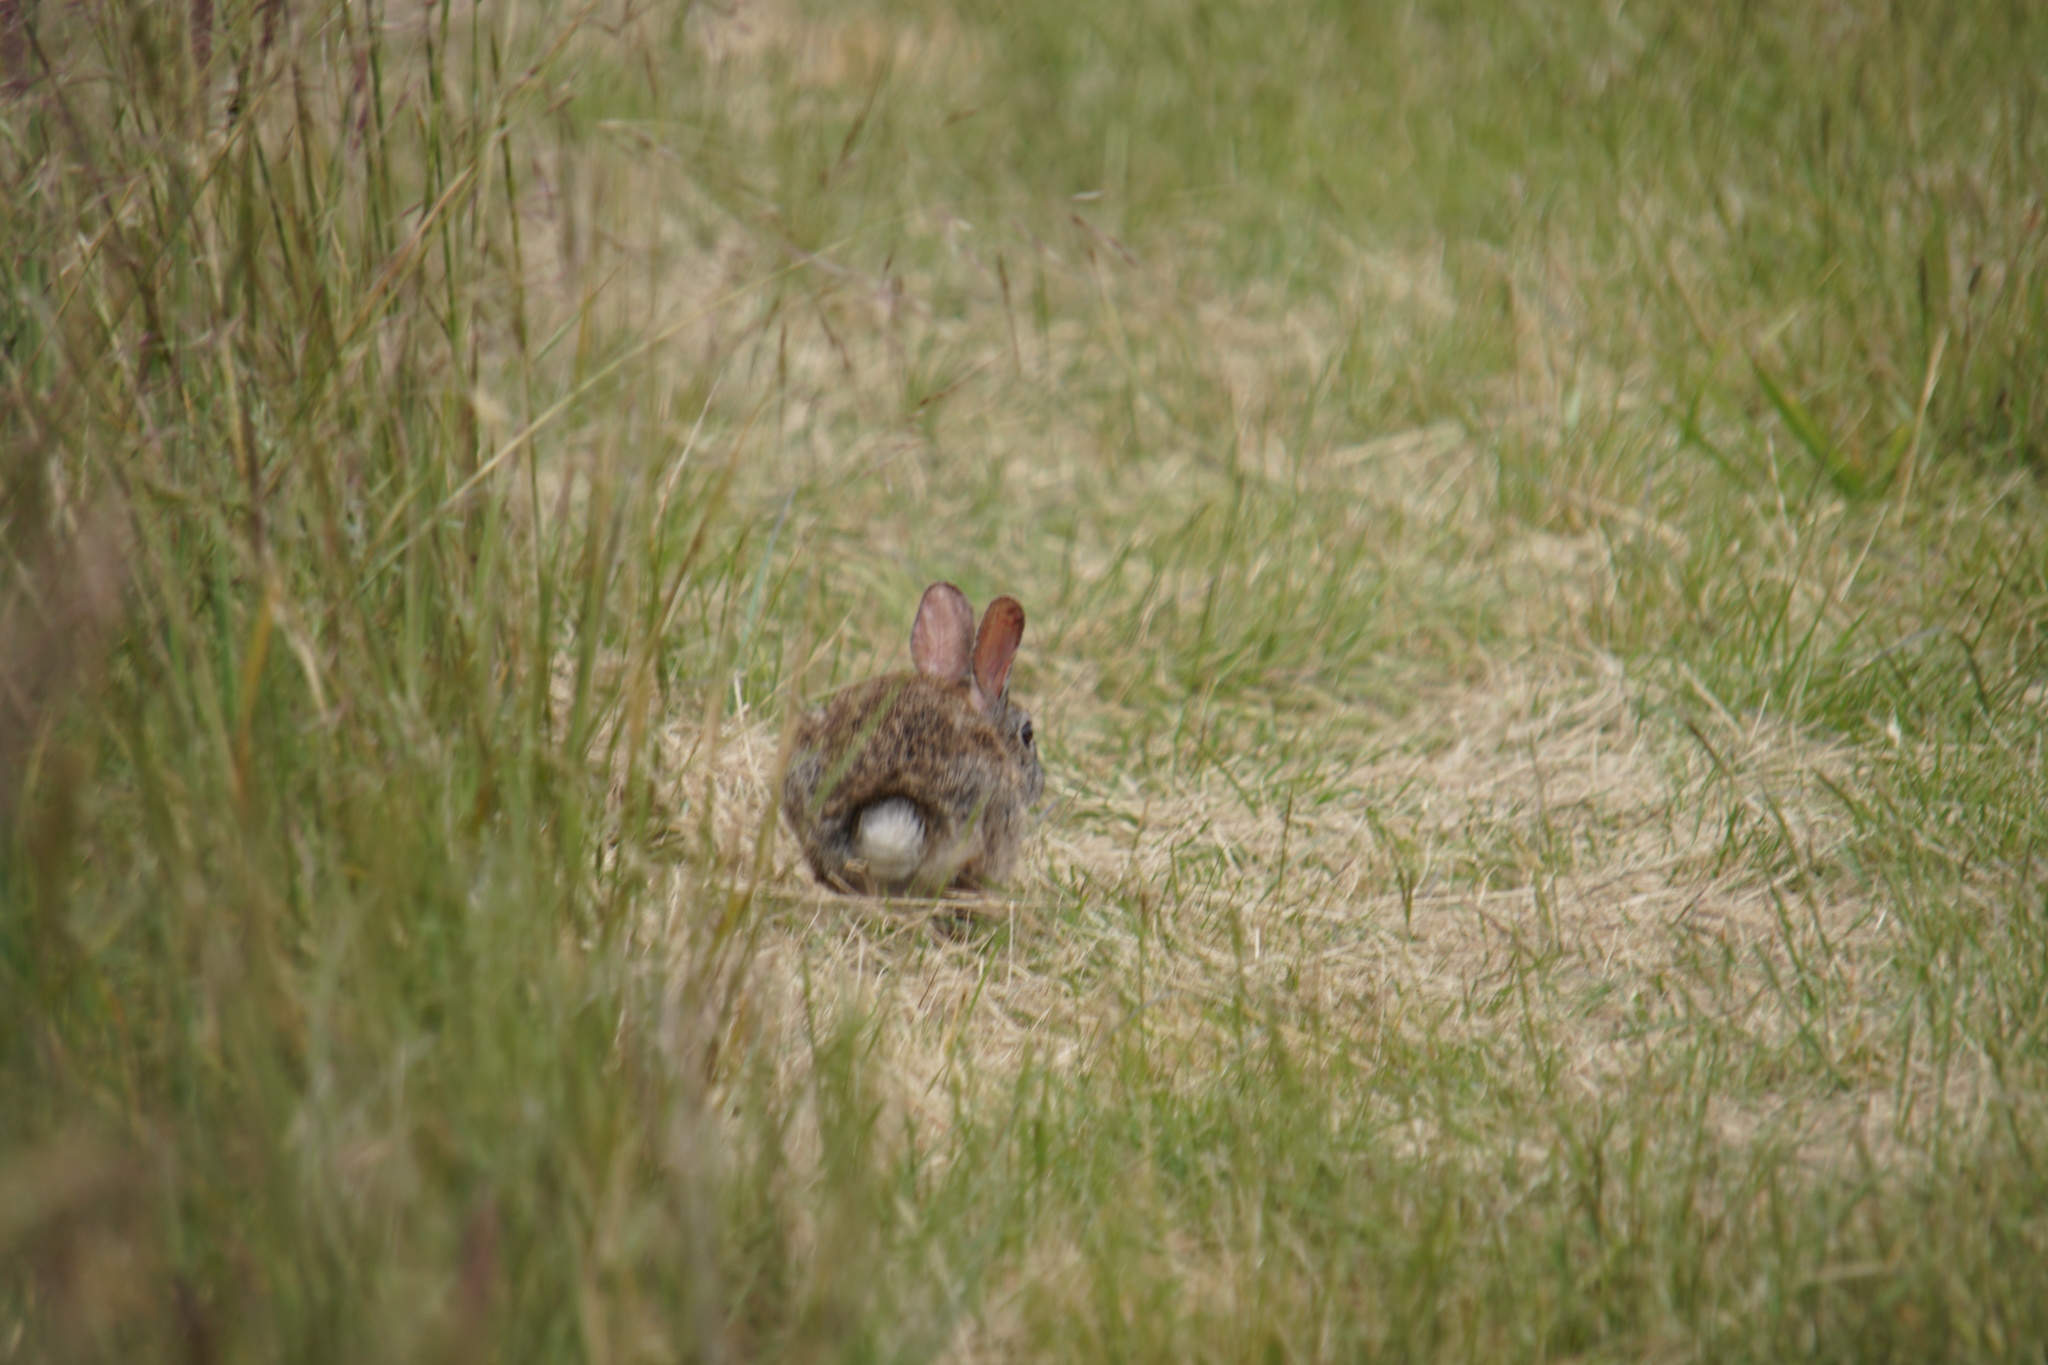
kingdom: Animalia
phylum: Chordata
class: Mammalia
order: Lagomorpha
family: Leporidae
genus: Sylvilagus
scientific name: Sylvilagus bachmani
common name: Brush rabbit
